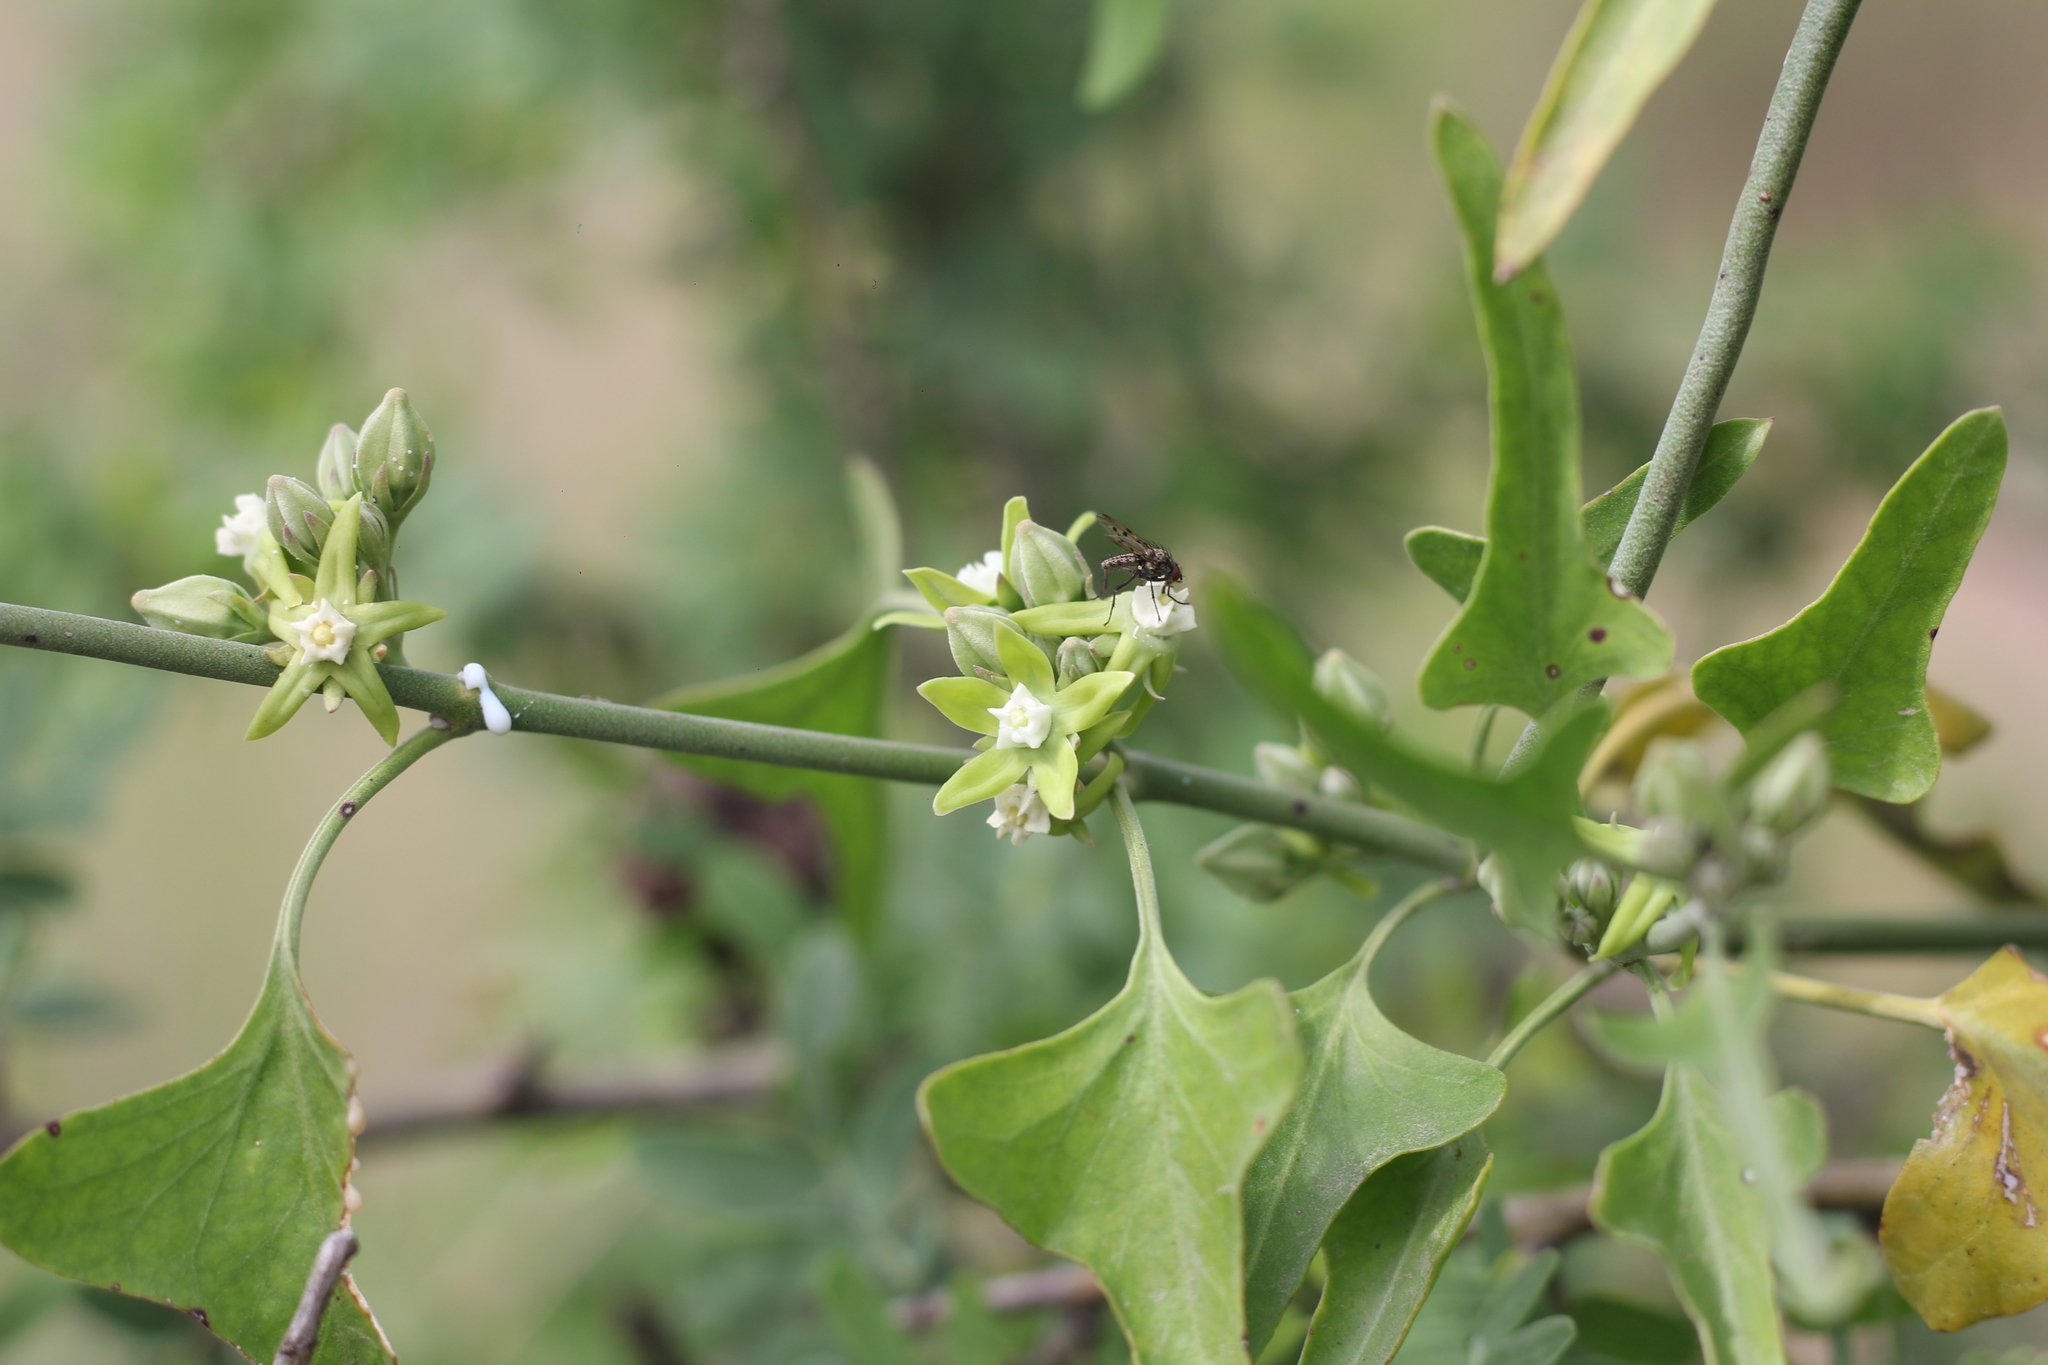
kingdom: Plantae
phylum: Tracheophyta
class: Magnoliopsida
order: Gentianales
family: Apocynaceae
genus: Araujia
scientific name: Araujia brachystephana
